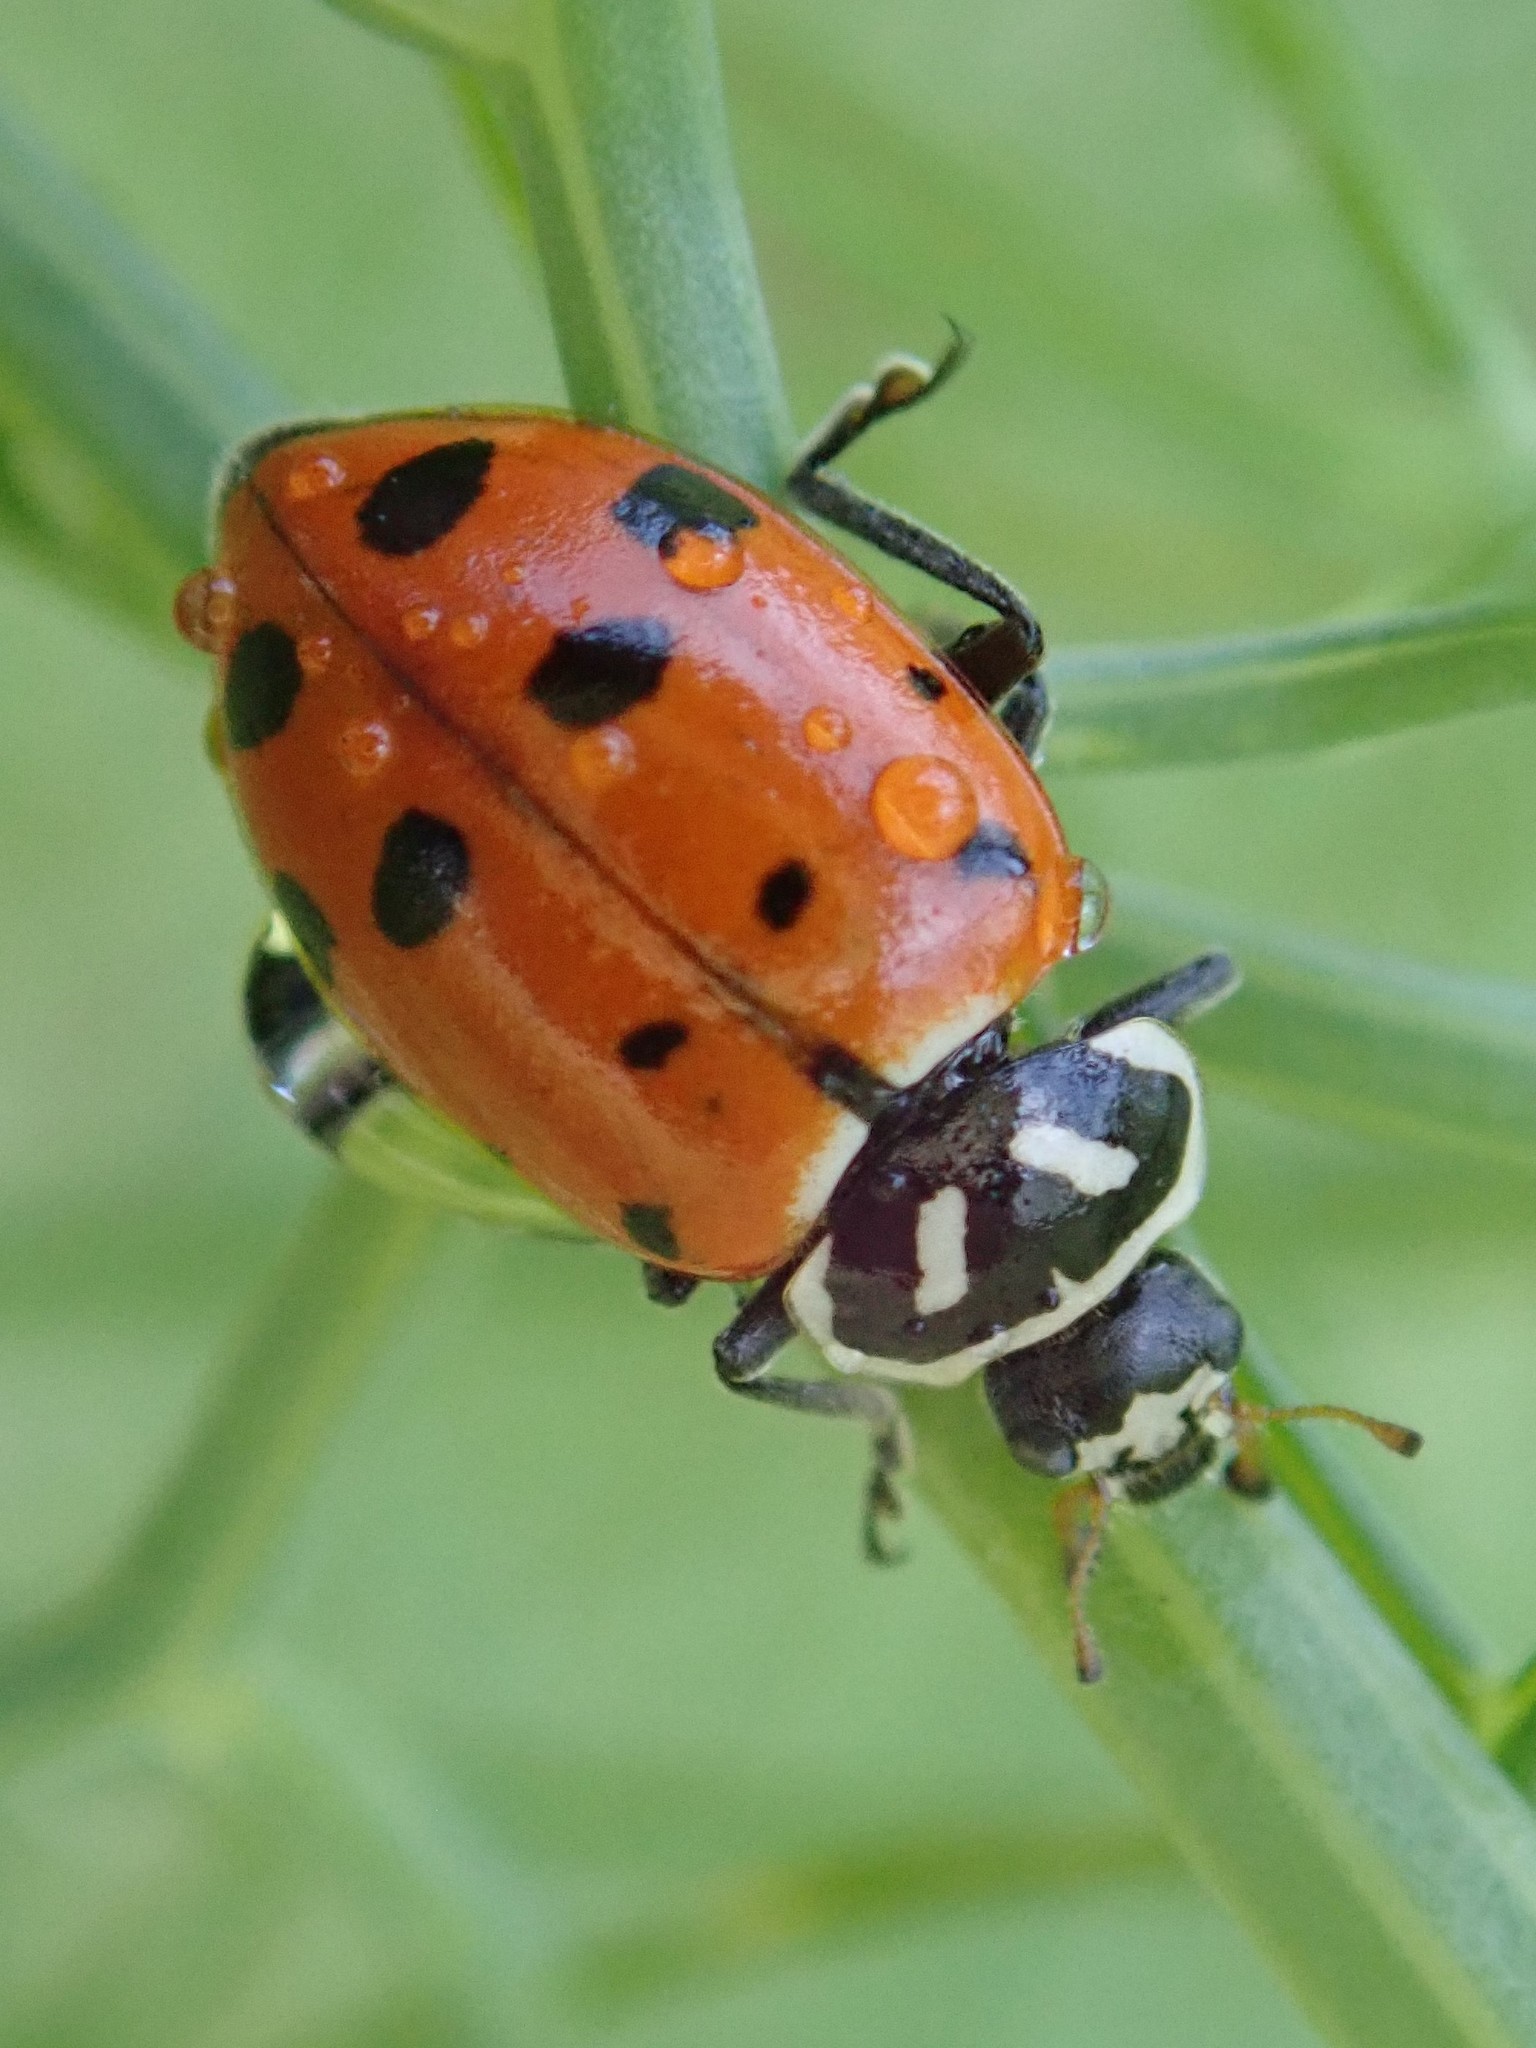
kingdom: Animalia
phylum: Arthropoda
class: Insecta
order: Coleoptera
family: Coccinellidae
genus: Hippodamia
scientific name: Hippodamia convergens
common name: Convergent lady beetle
